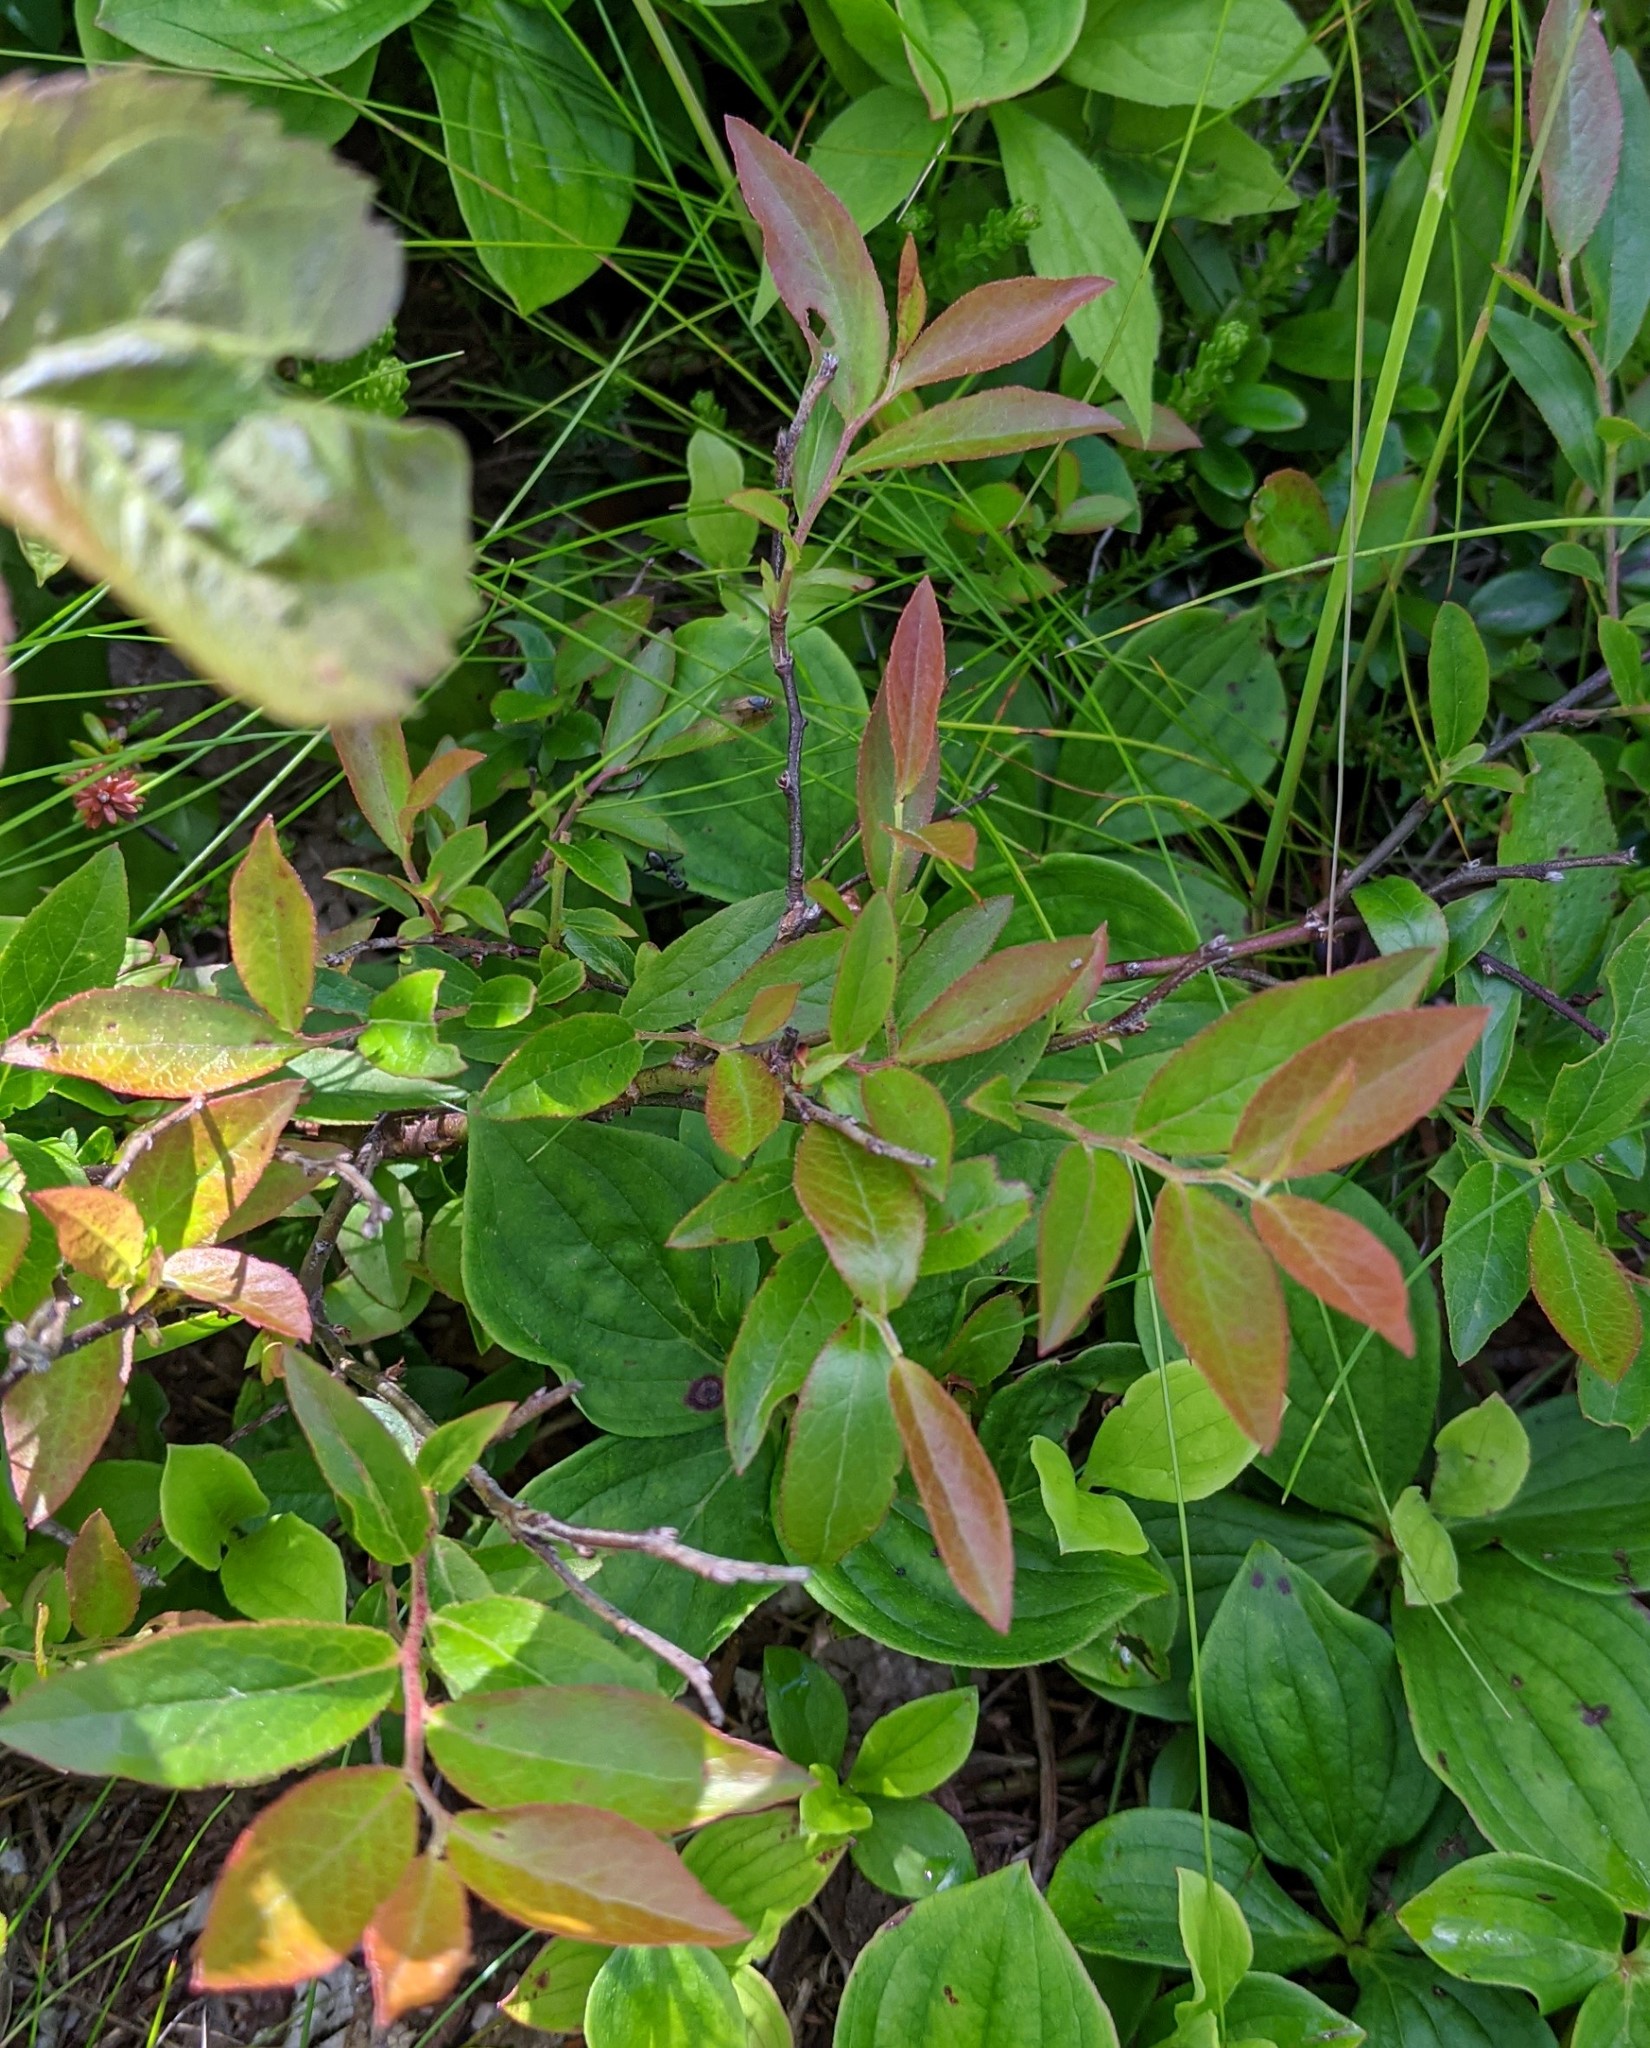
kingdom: Plantae
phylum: Tracheophyta
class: Magnoliopsida
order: Ericales
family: Ericaceae
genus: Vaccinium
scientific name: Vaccinium angustifolium
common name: Early lowbush blueberry
